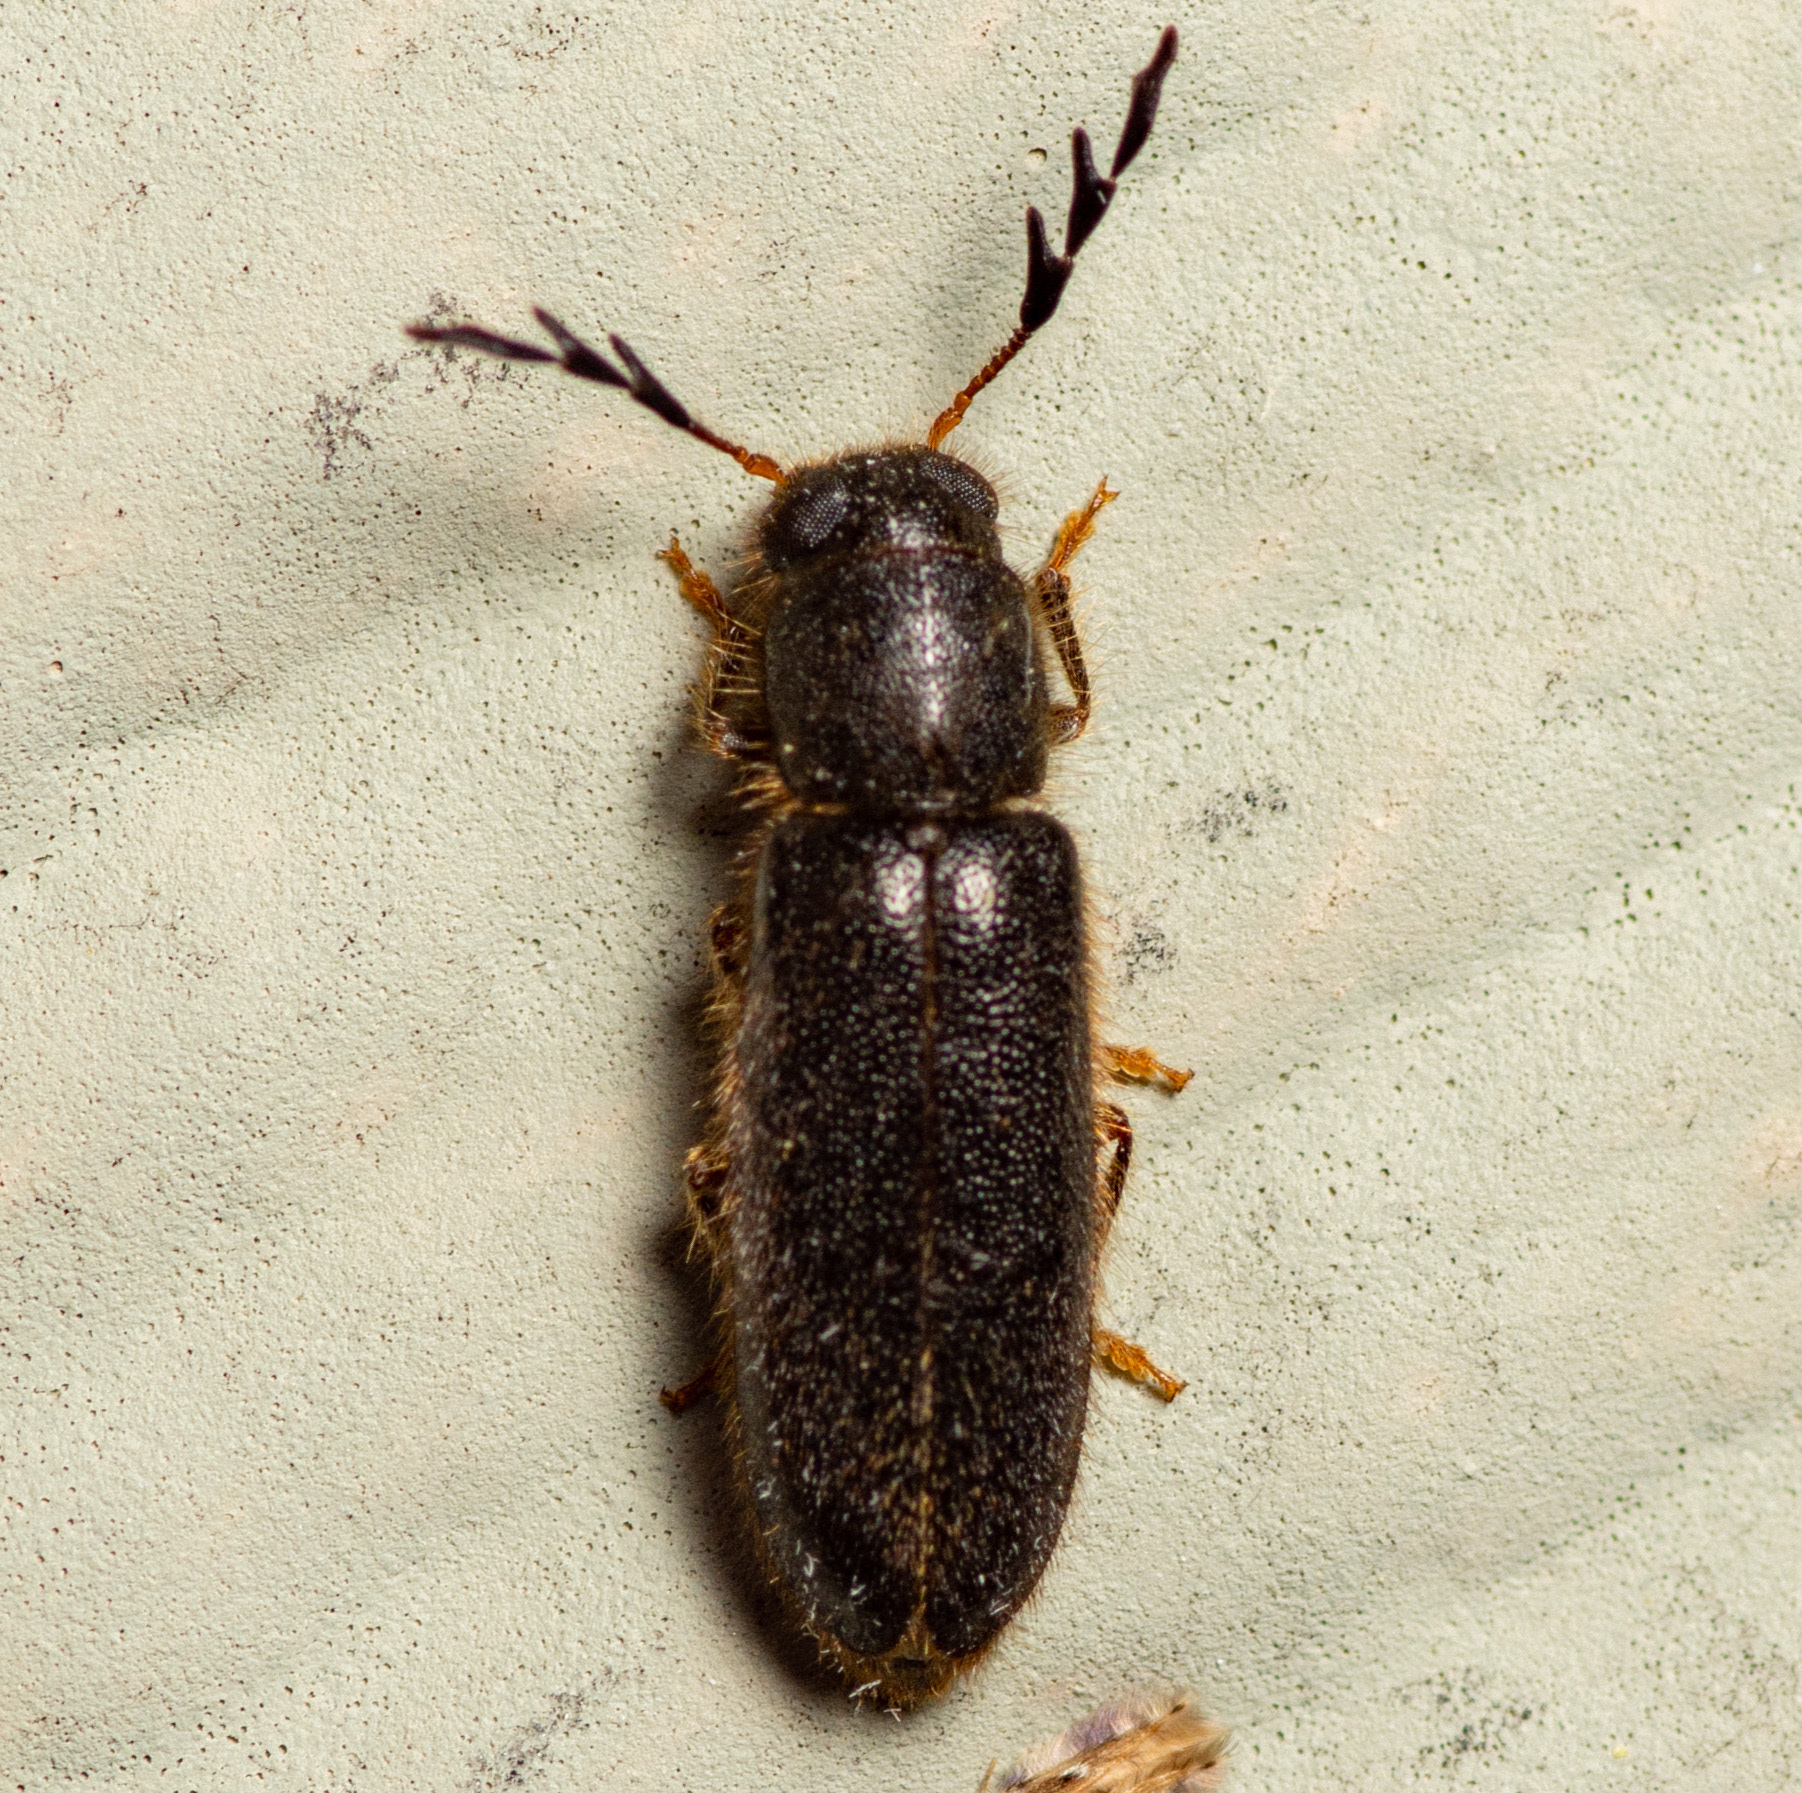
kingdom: Animalia
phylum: Arthropoda
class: Insecta
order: Coleoptera
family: Cleridae
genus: Neorthopleura
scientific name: Neorthopleura texana
